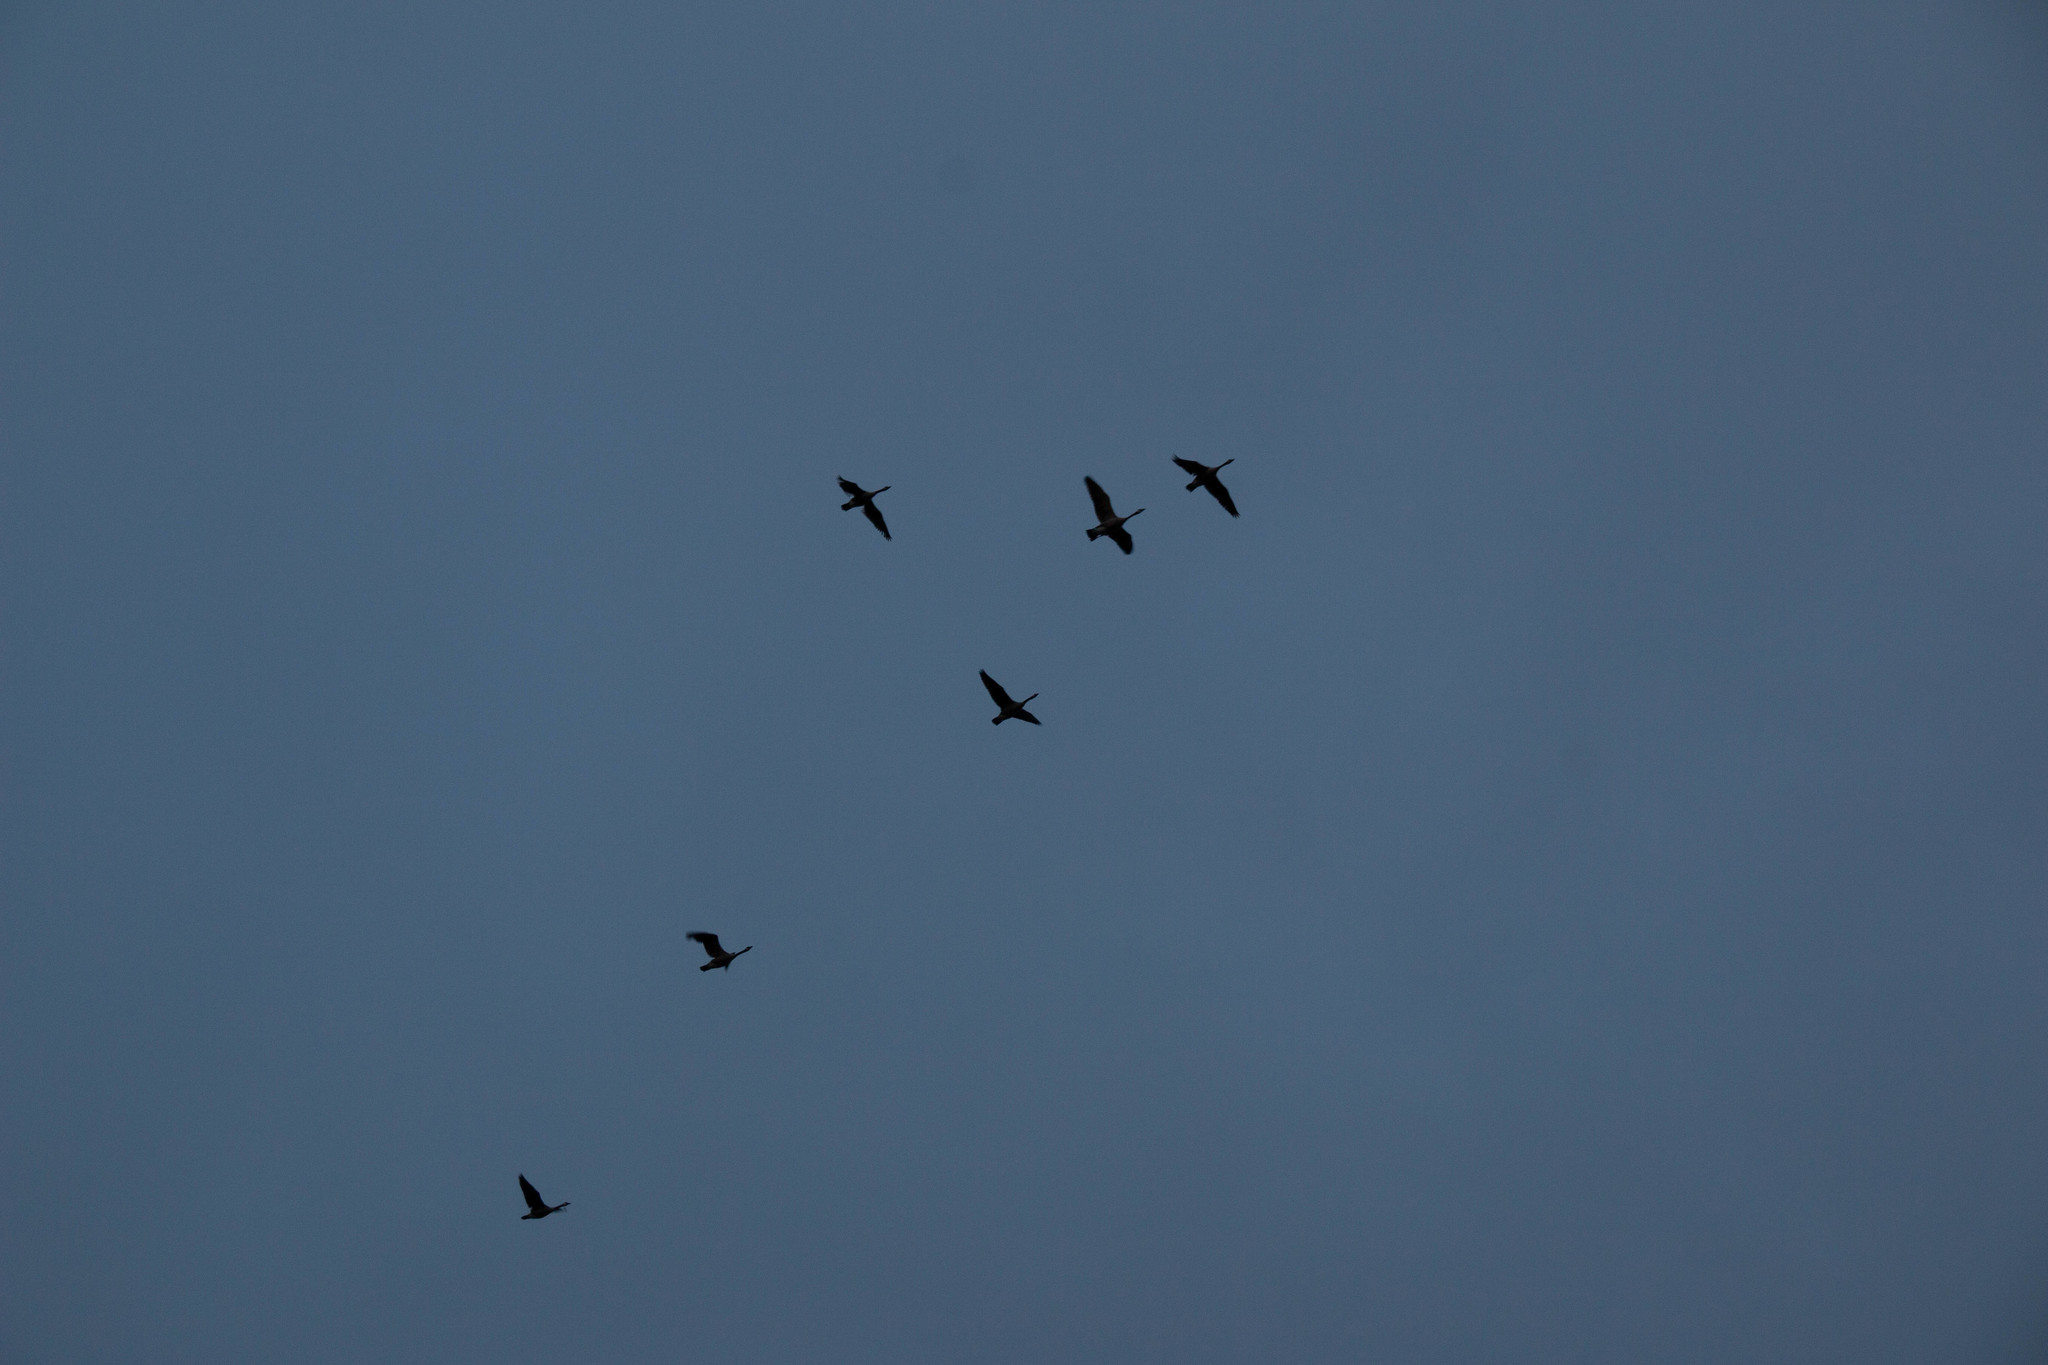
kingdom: Animalia
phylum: Chordata
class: Aves
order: Anseriformes
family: Anatidae
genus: Branta
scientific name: Branta canadensis
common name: Canada goose
